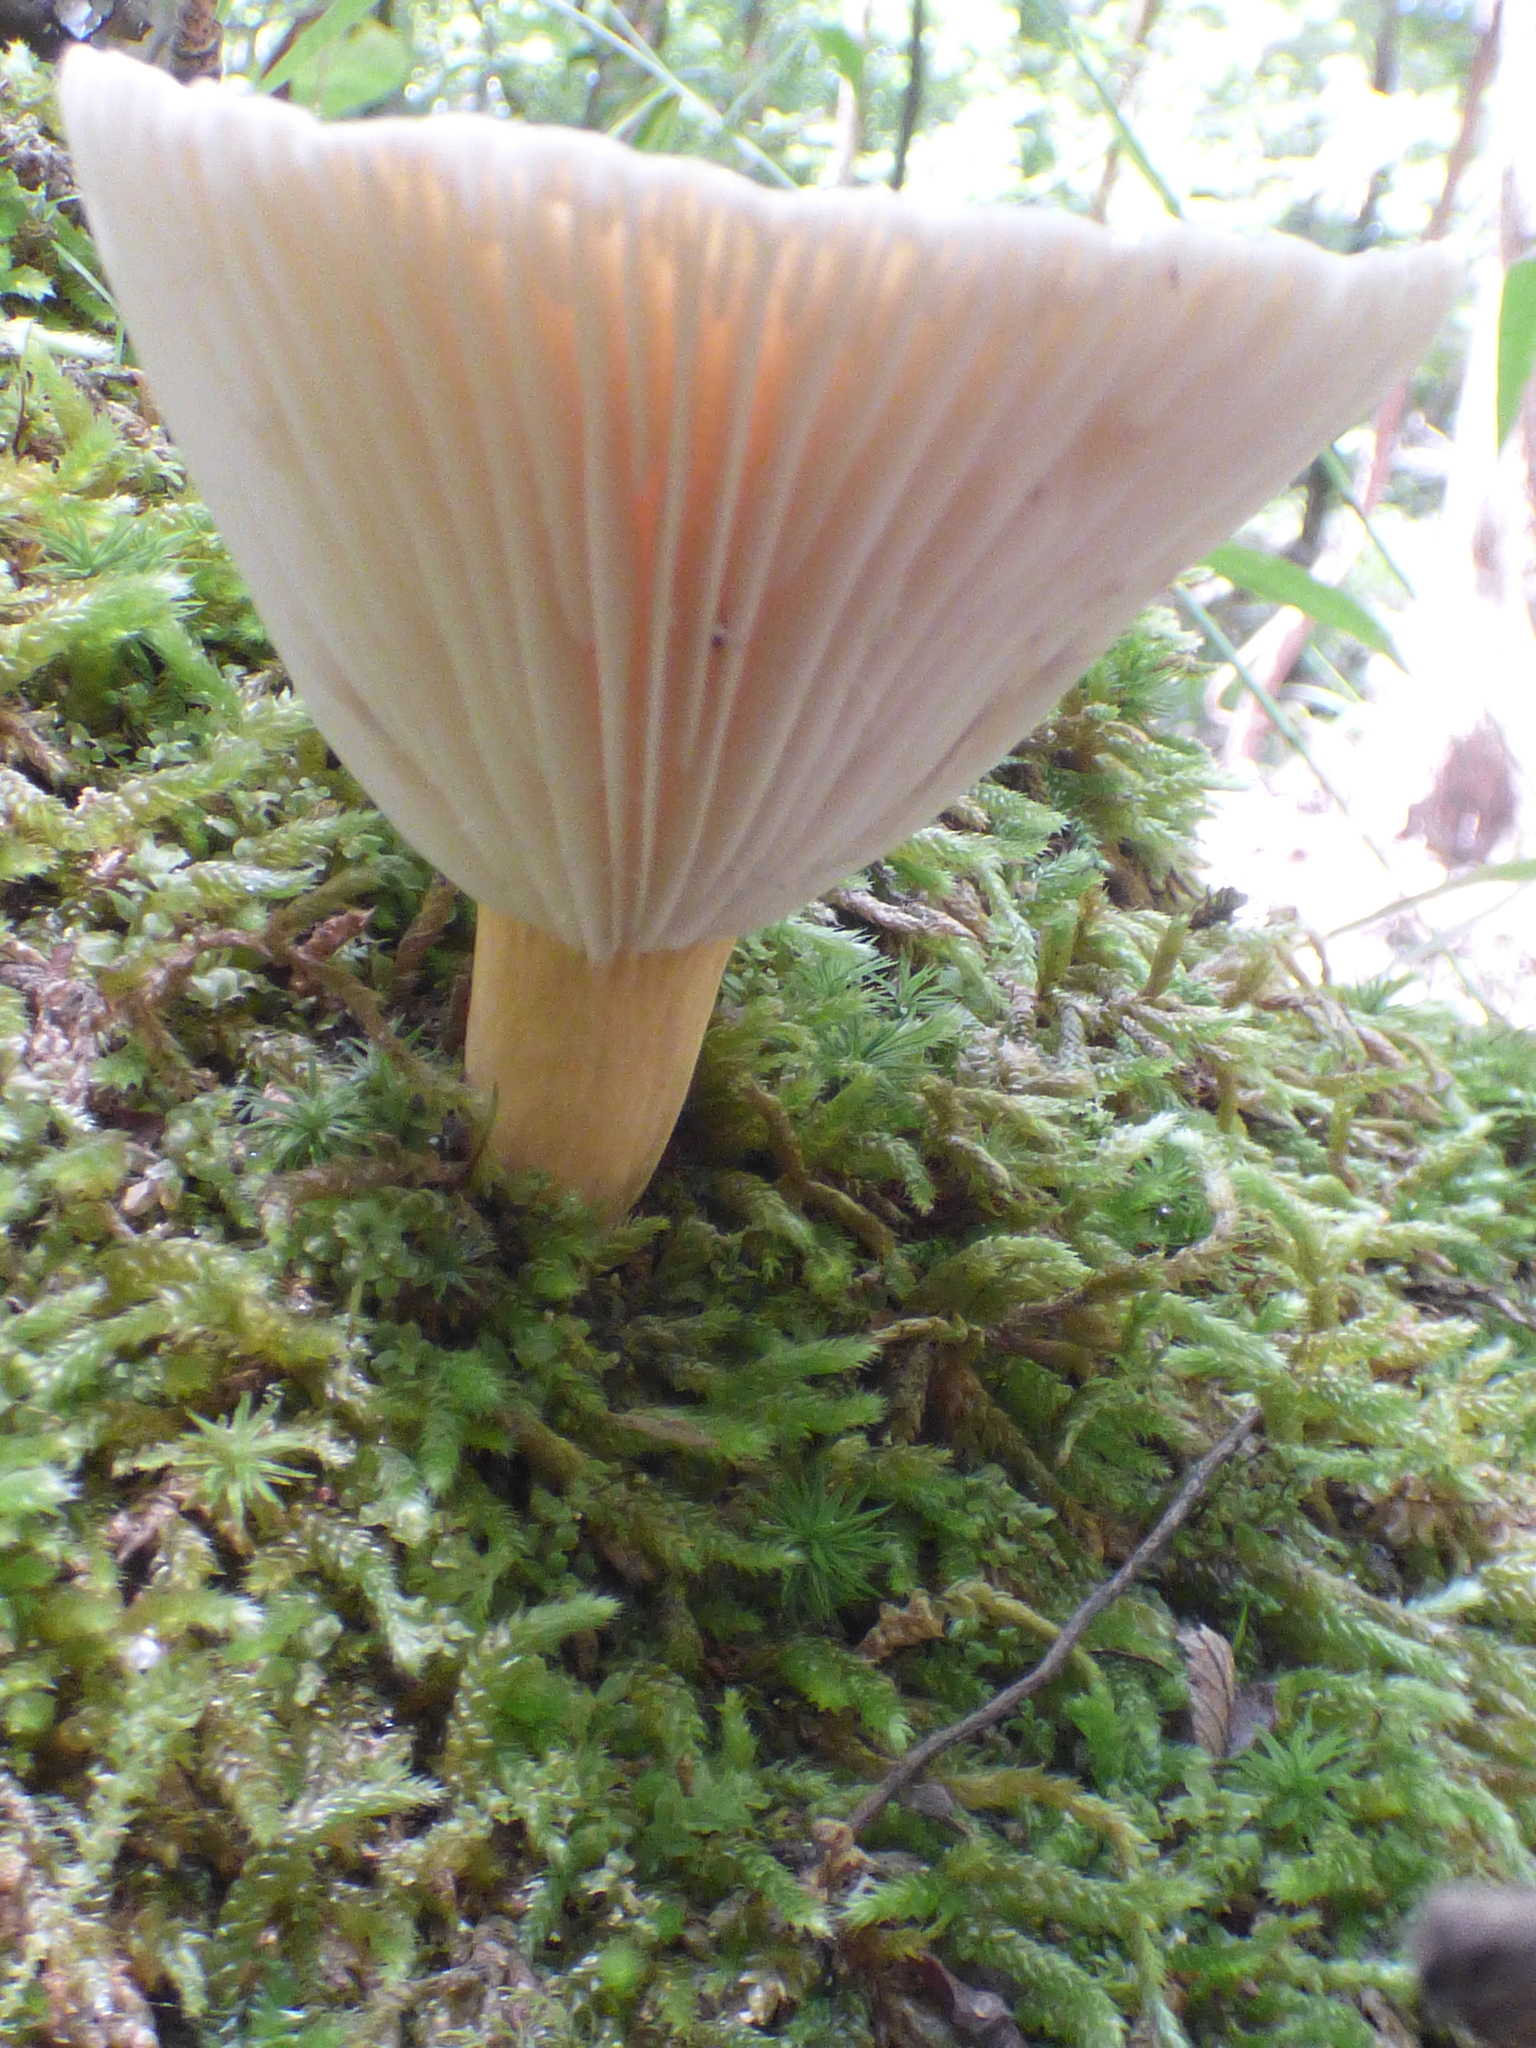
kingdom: Fungi
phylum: Basidiomycota
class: Agaricomycetes
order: Russulales
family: Russulaceae
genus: Lactarius
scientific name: Lactarius hygrophoroides
